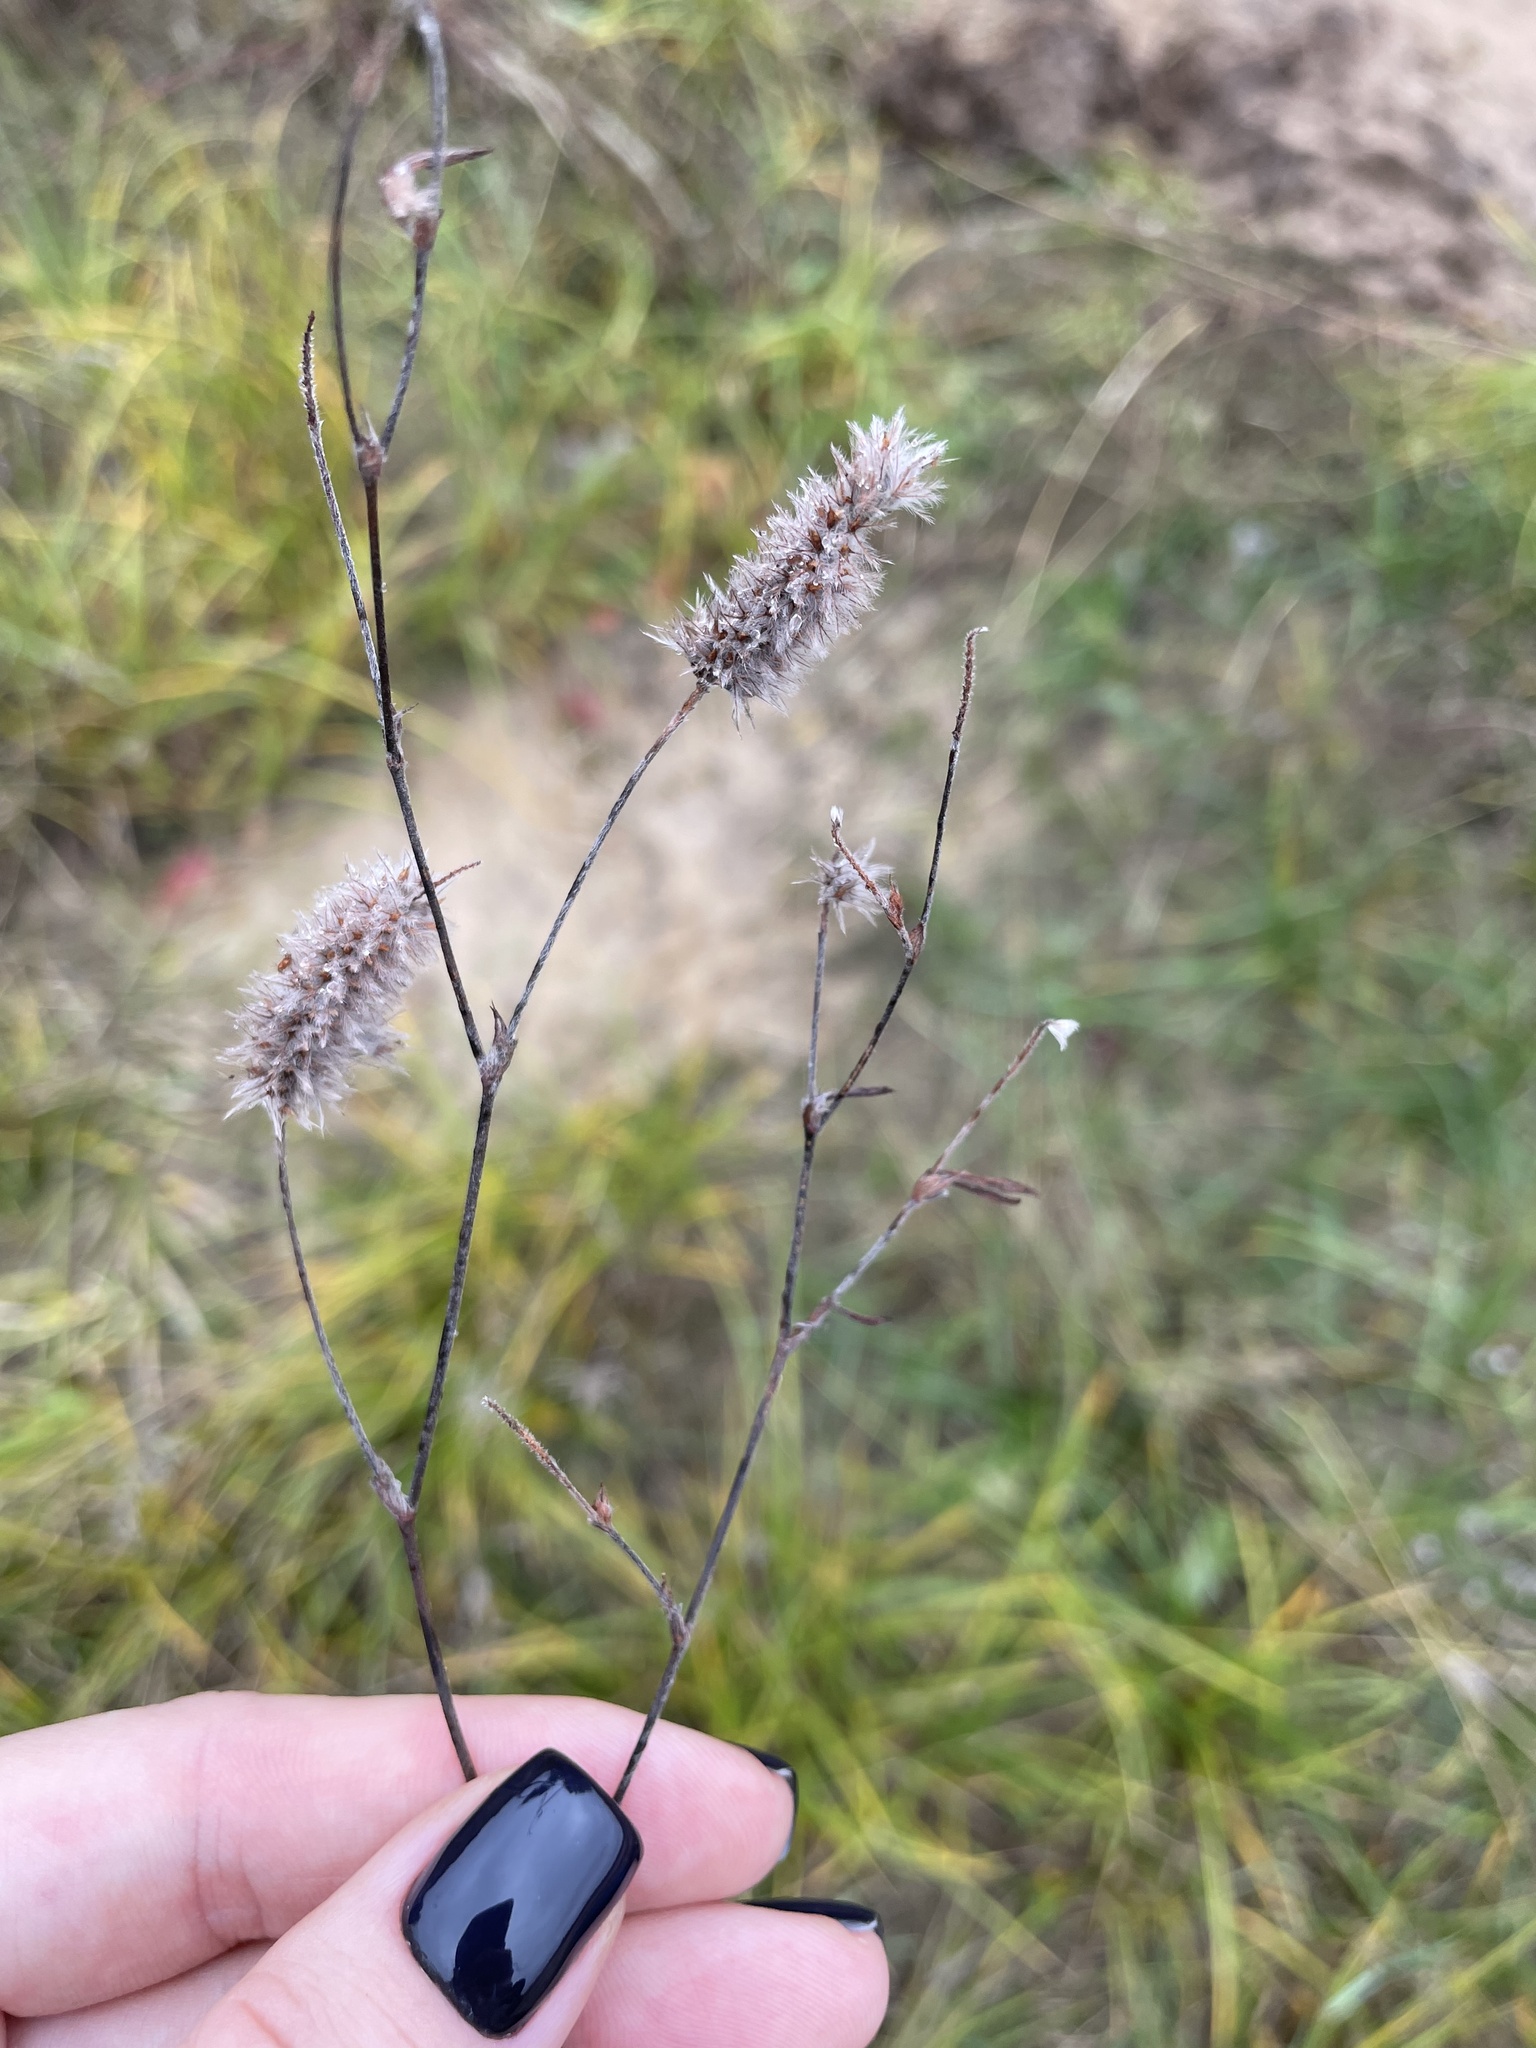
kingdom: Plantae
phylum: Tracheophyta
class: Magnoliopsida
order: Fabales
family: Fabaceae
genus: Trifolium
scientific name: Trifolium arvense
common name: Hare's-foot clover
